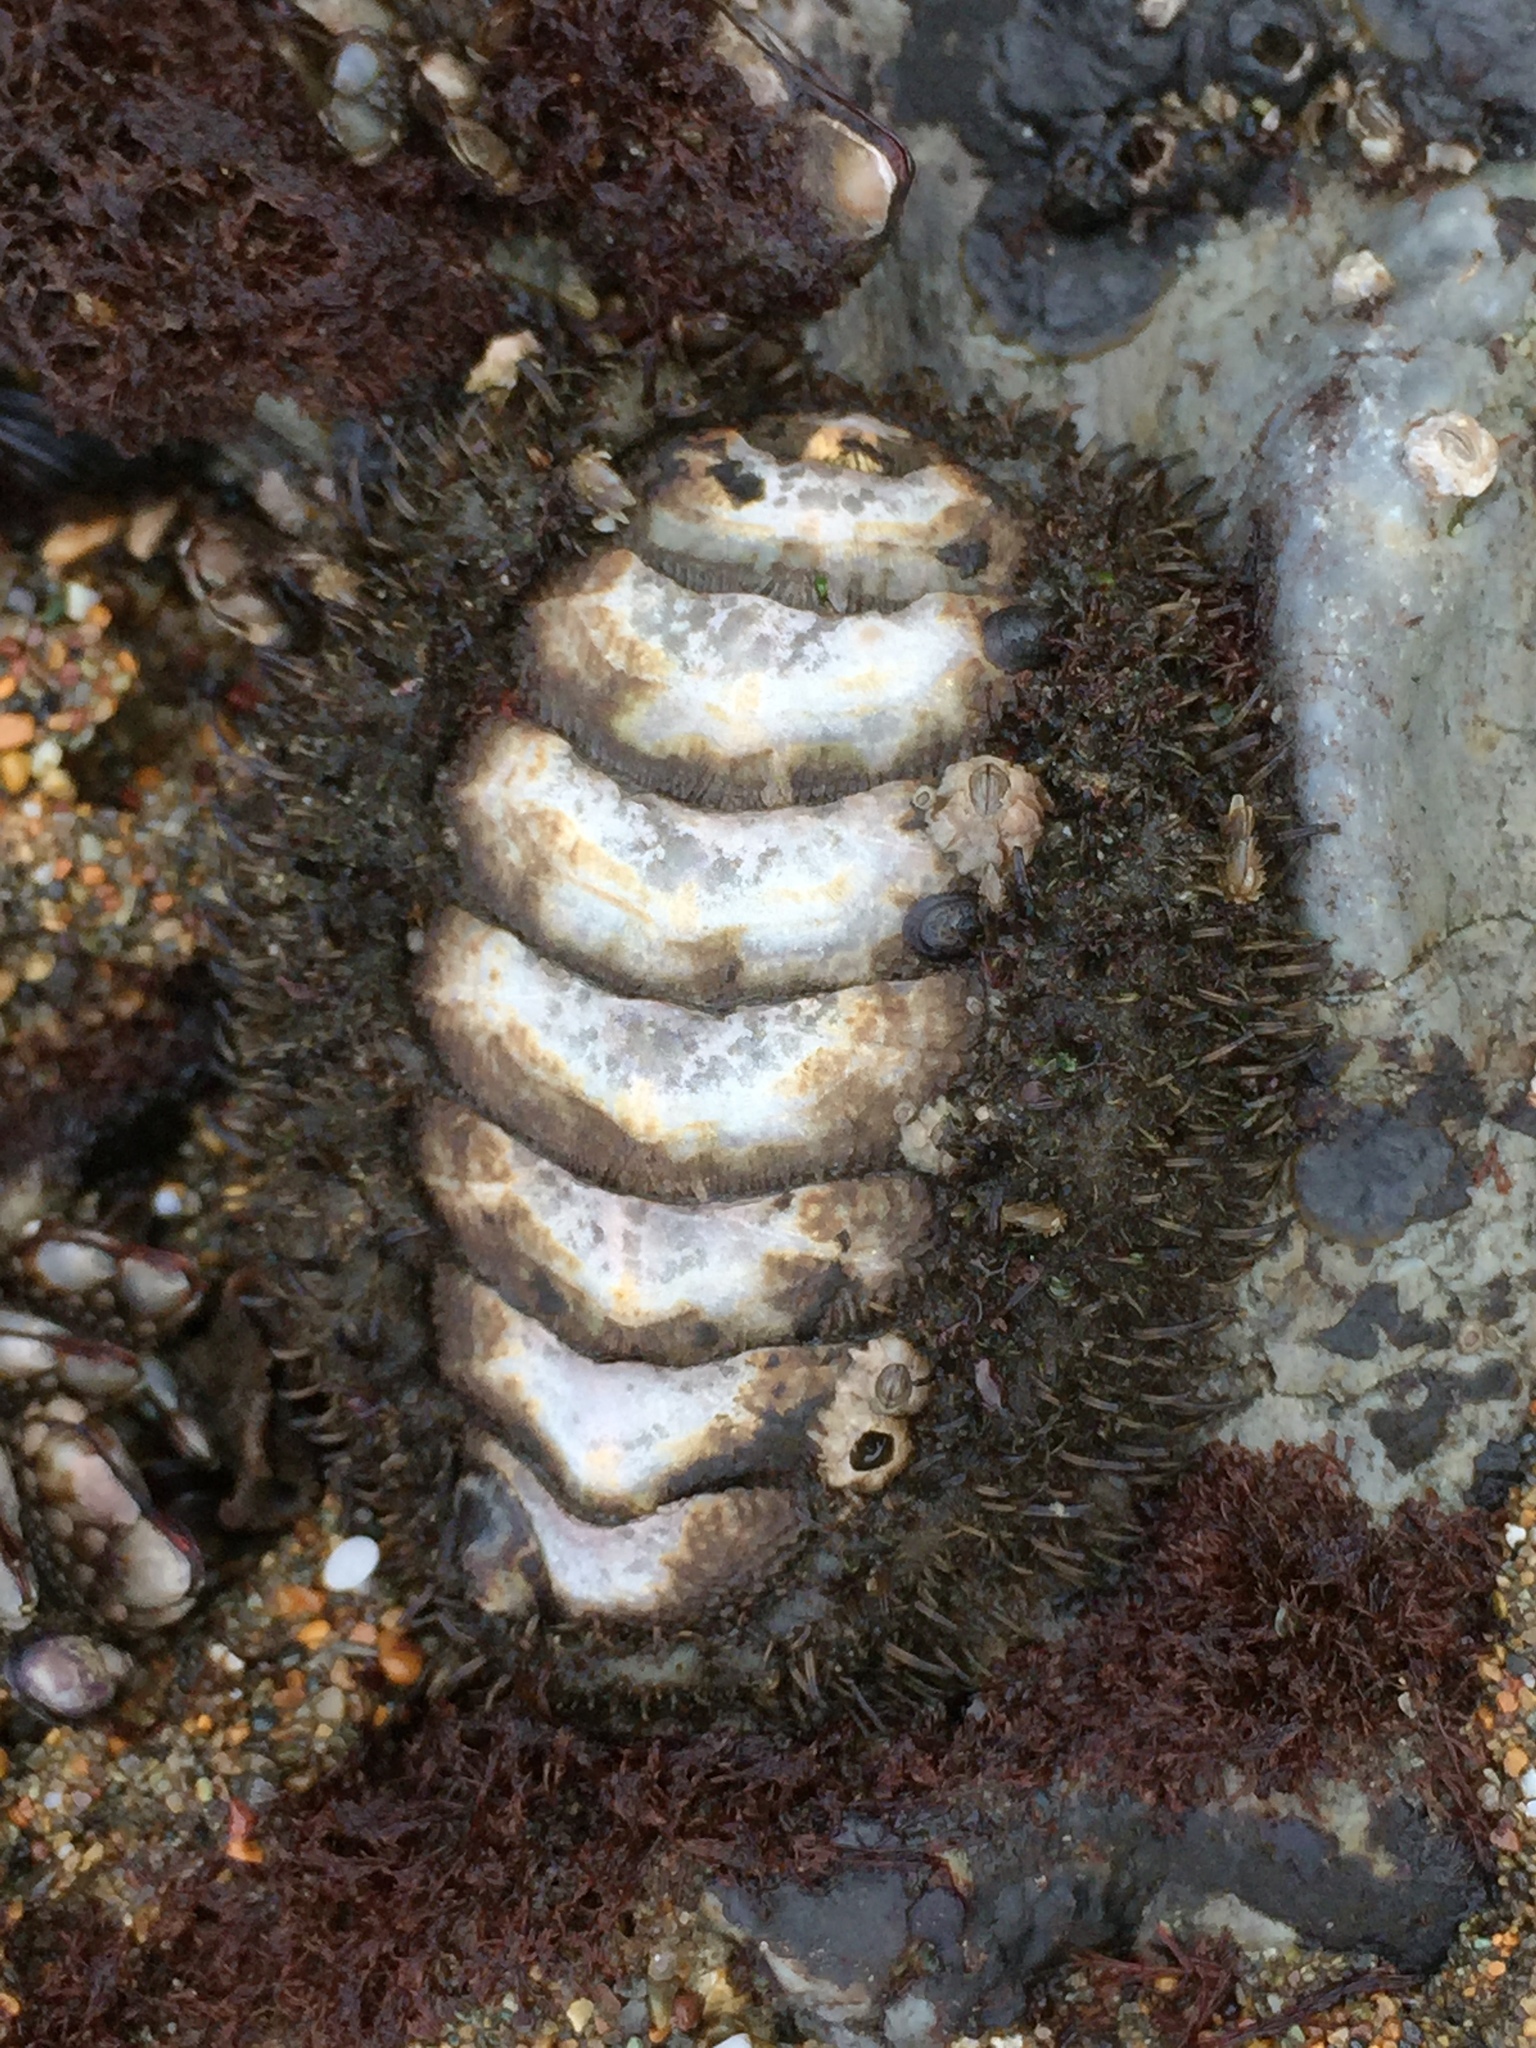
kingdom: Animalia
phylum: Mollusca
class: Polyplacophora
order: Chitonida
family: Mopaliidae
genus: Mopalia
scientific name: Mopalia muscosa
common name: Mossy chiton
